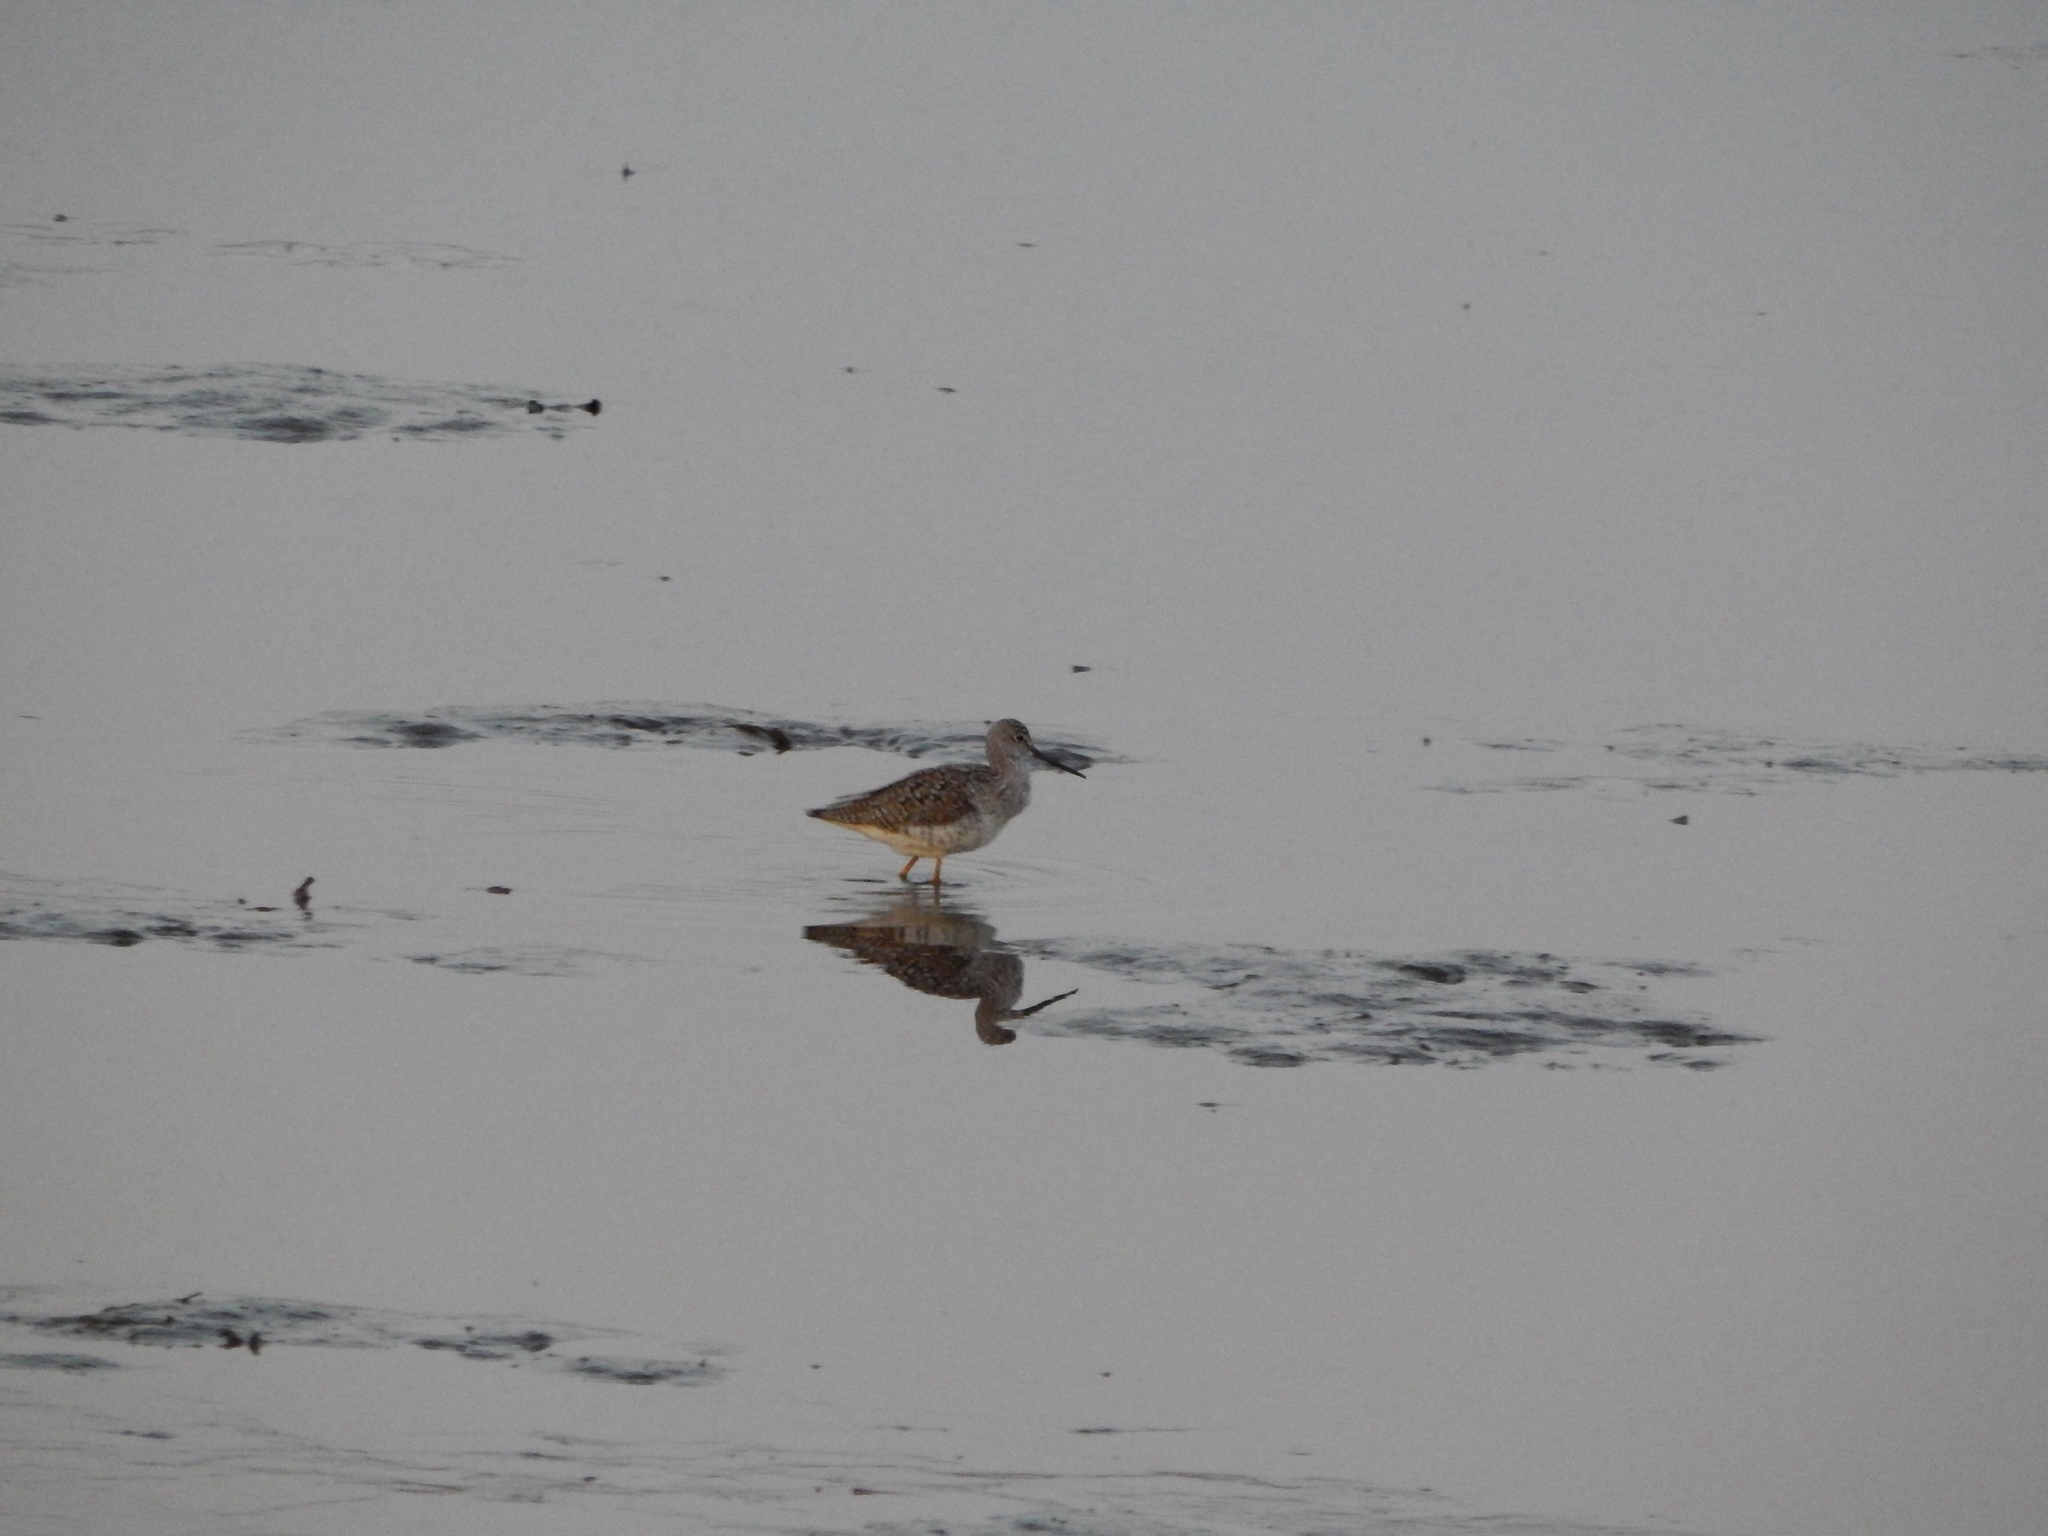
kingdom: Animalia
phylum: Chordata
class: Aves
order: Charadriiformes
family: Scolopacidae
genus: Tringa
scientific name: Tringa melanoleuca
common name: Greater yellowlegs
